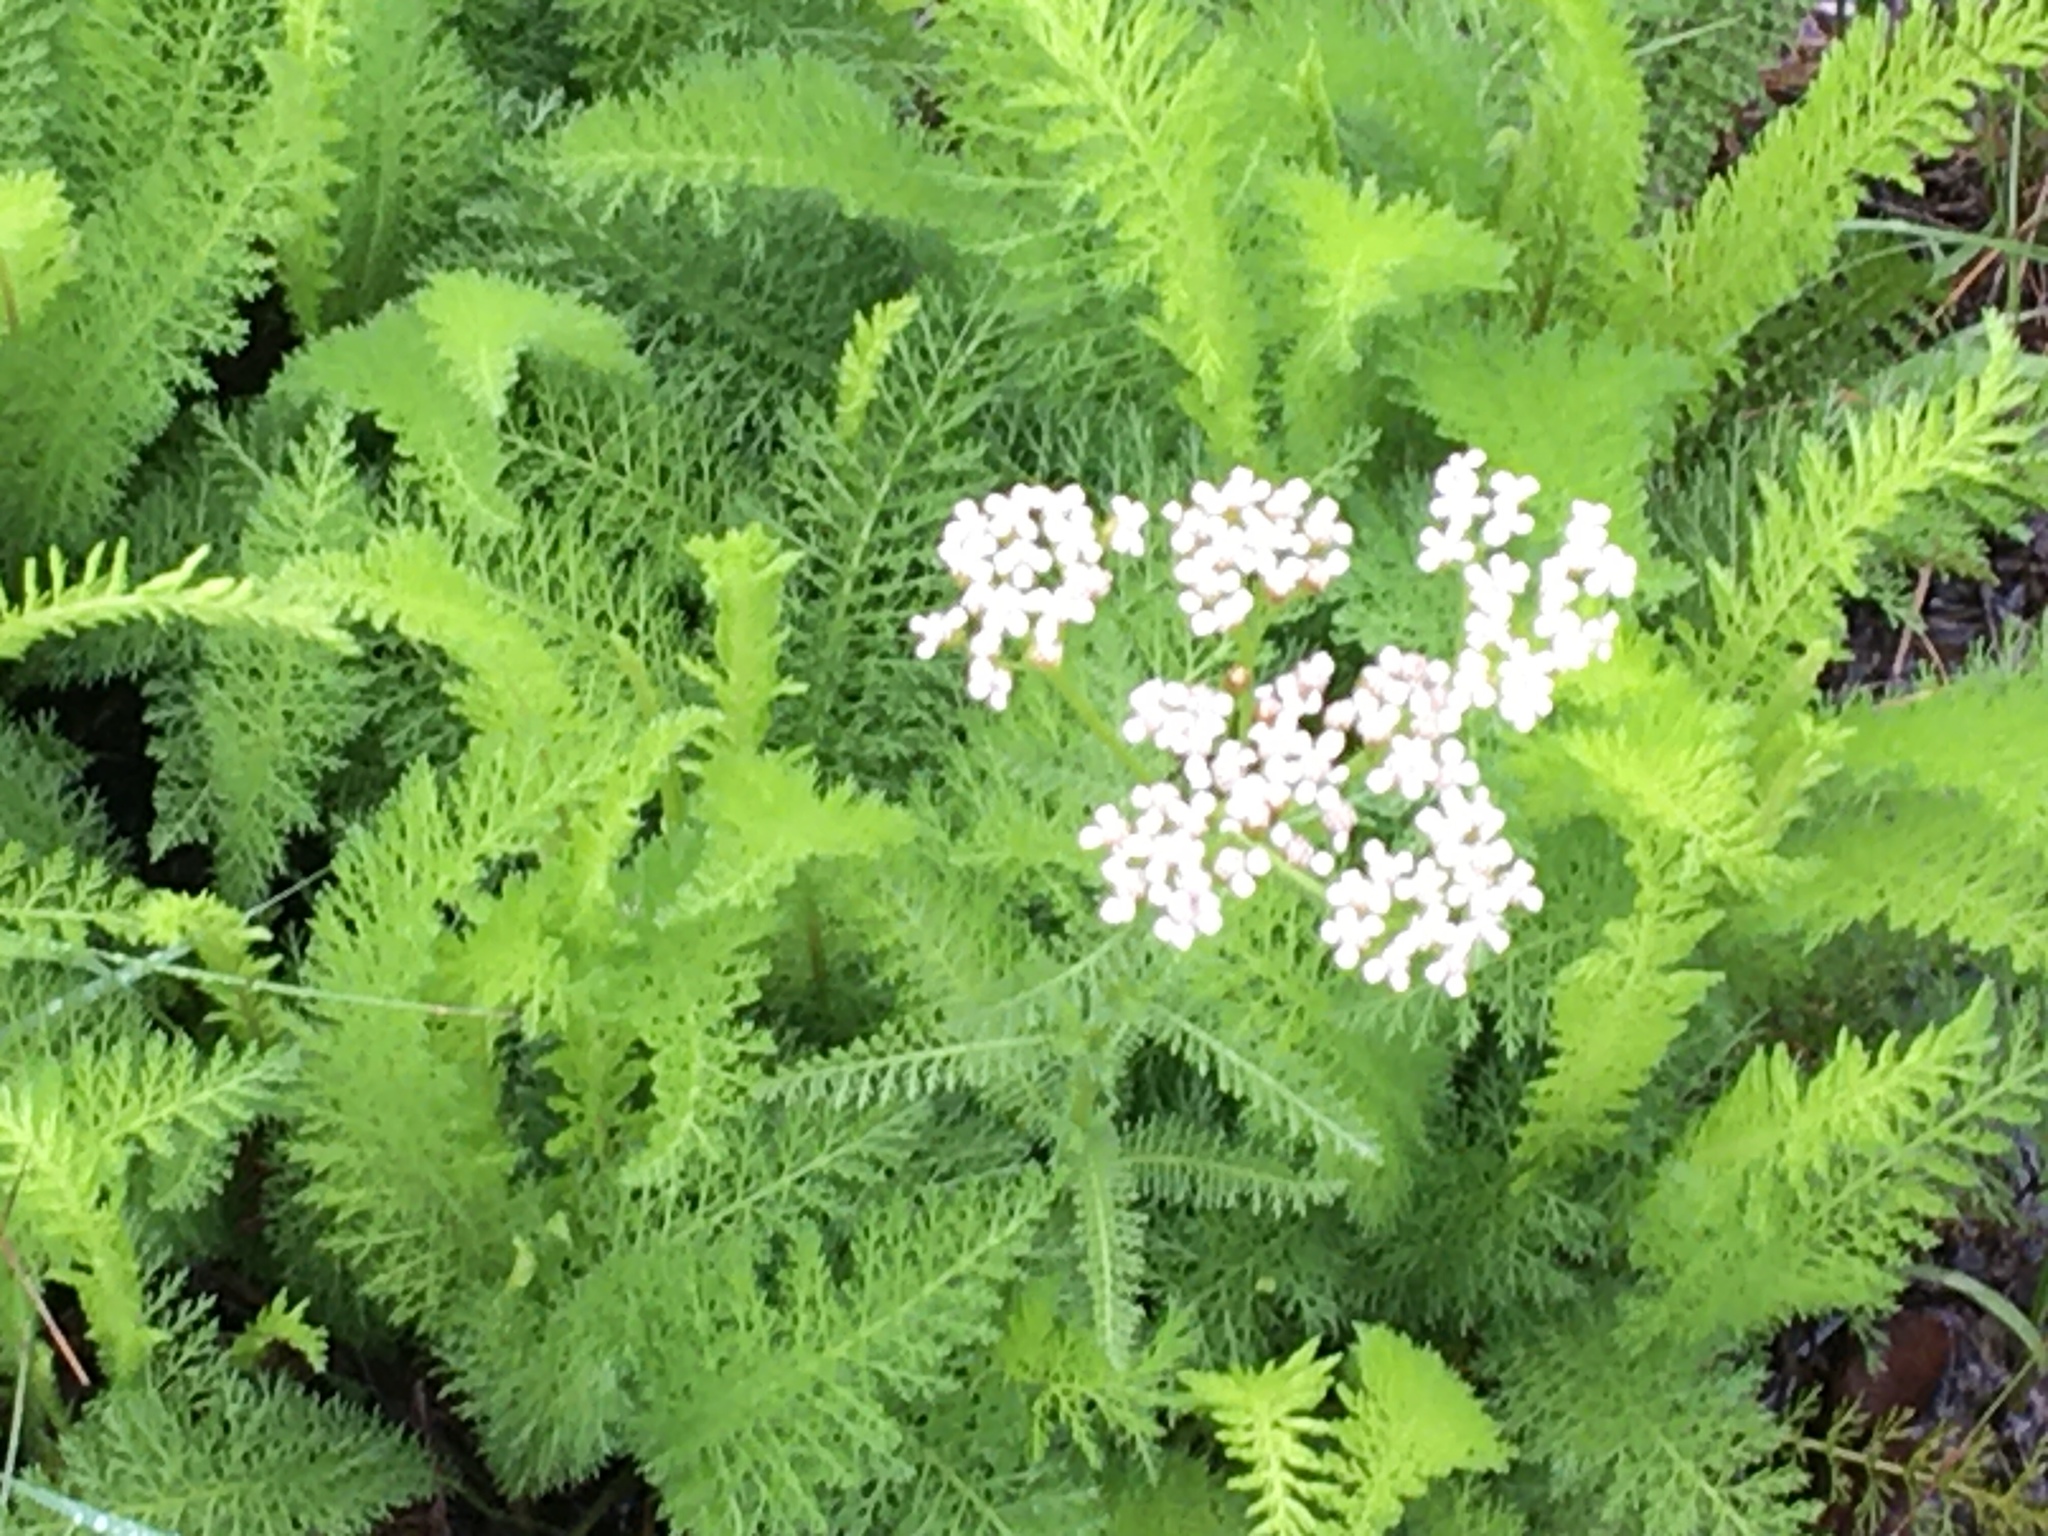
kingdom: Plantae
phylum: Tracheophyta
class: Magnoliopsida
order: Asterales
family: Asteraceae
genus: Achillea
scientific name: Achillea millefolium
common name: Yarrow
